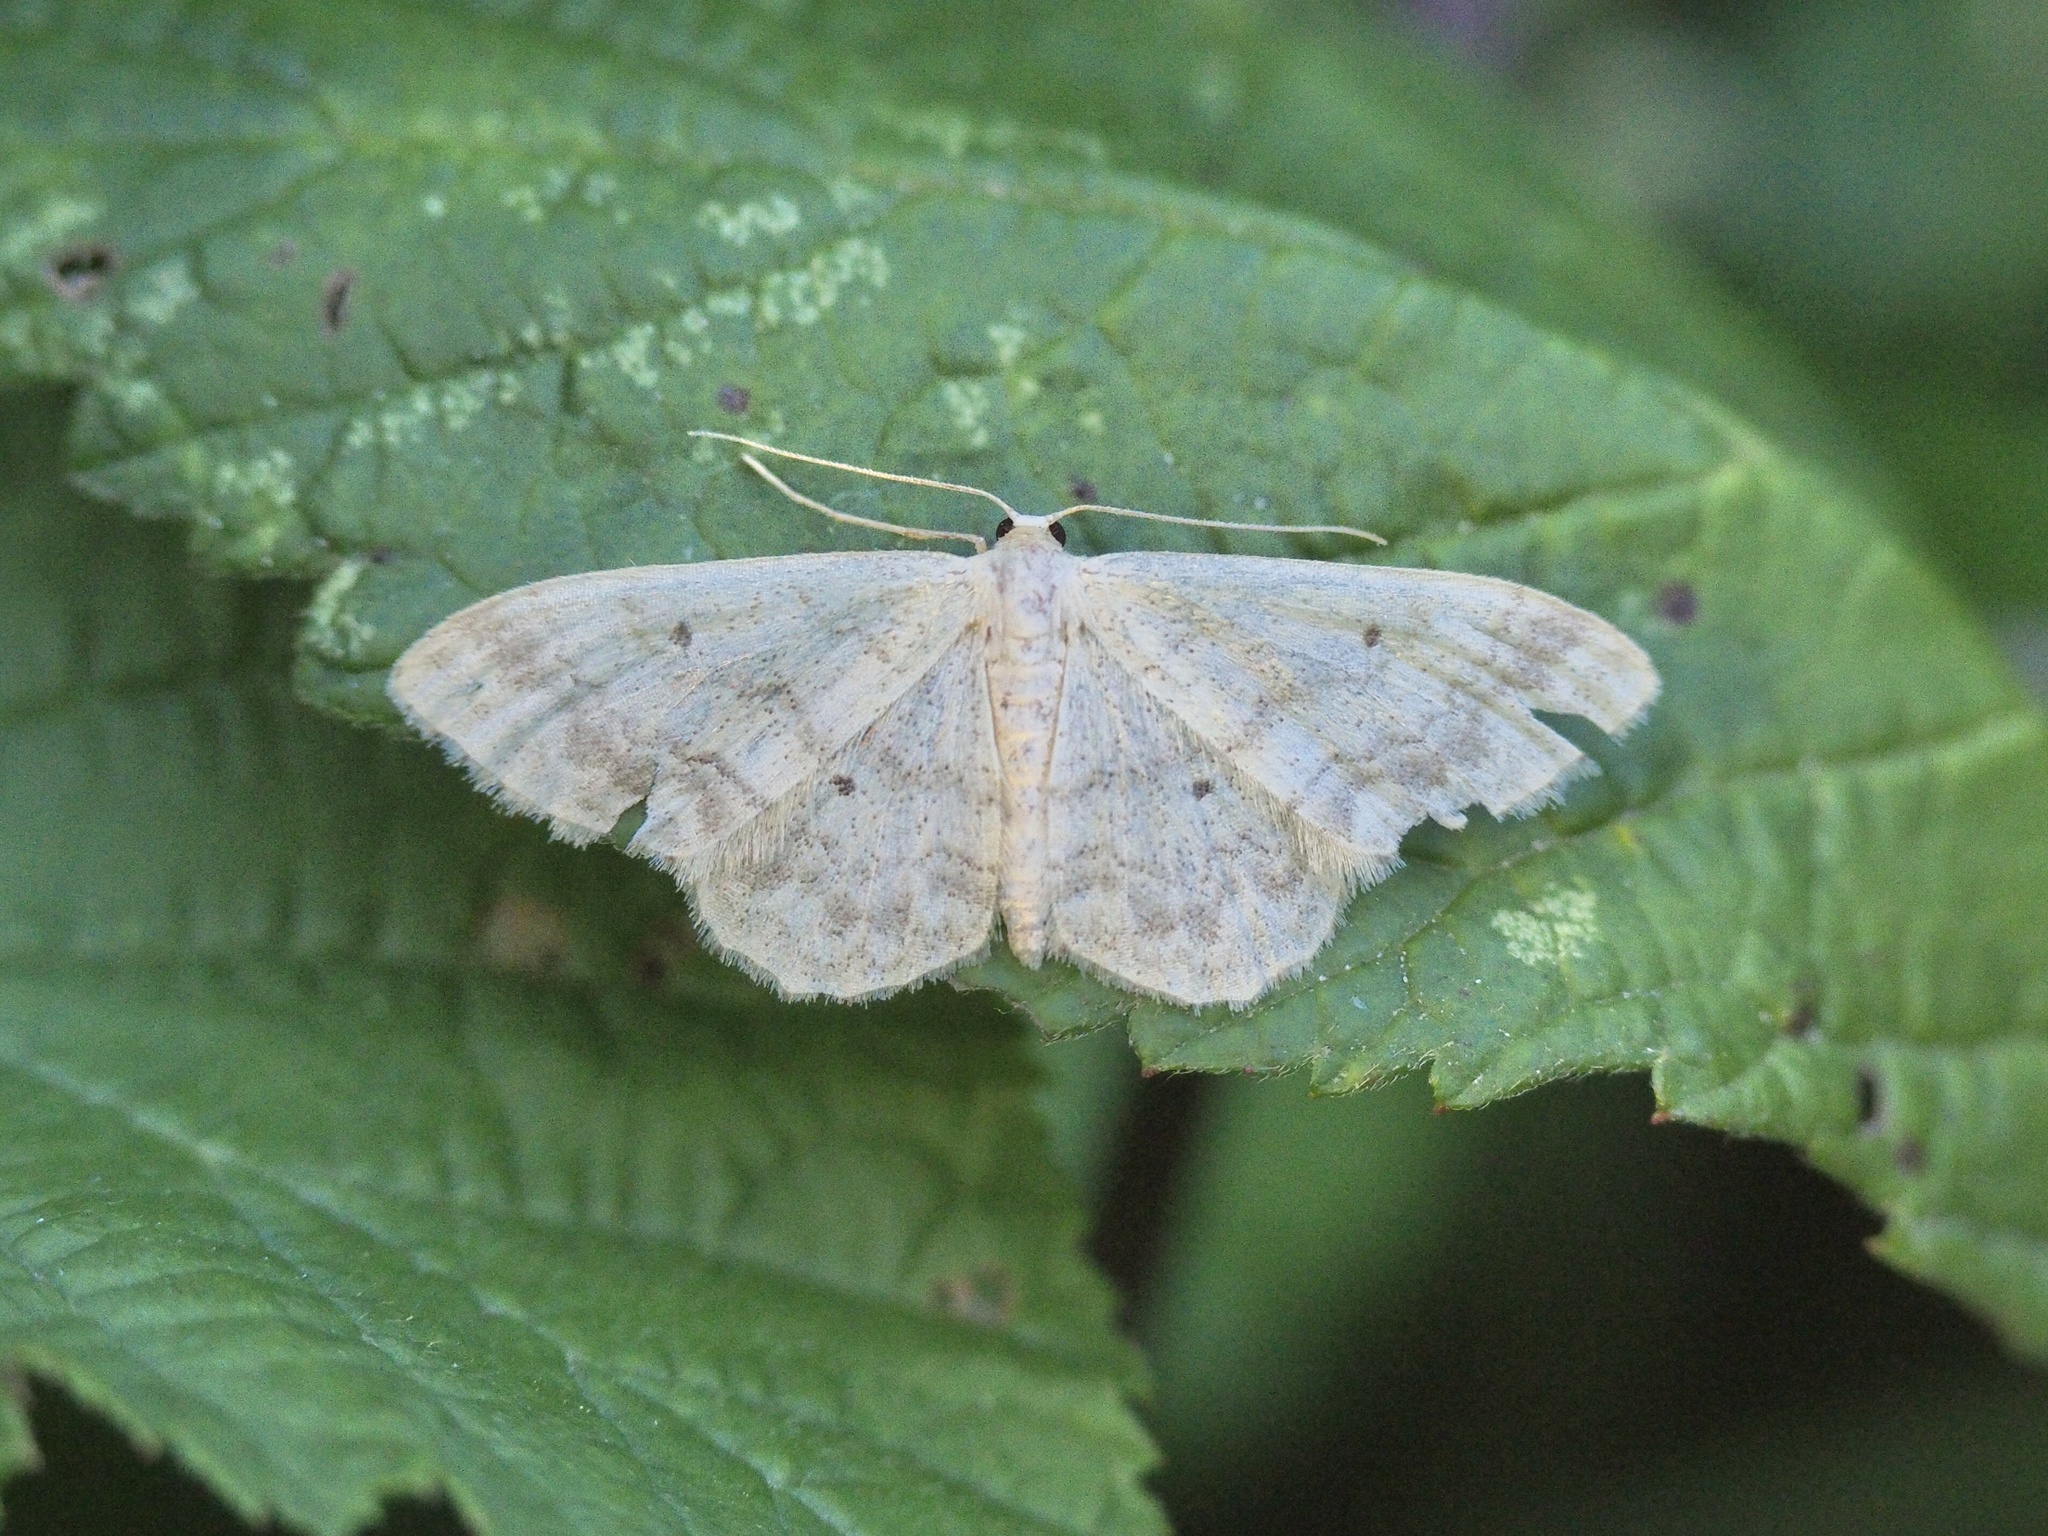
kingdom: Animalia
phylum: Arthropoda
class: Insecta
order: Lepidoptera
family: Geometridae
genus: Idaea
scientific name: Idaea biselata
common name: Small fan-footed wave
